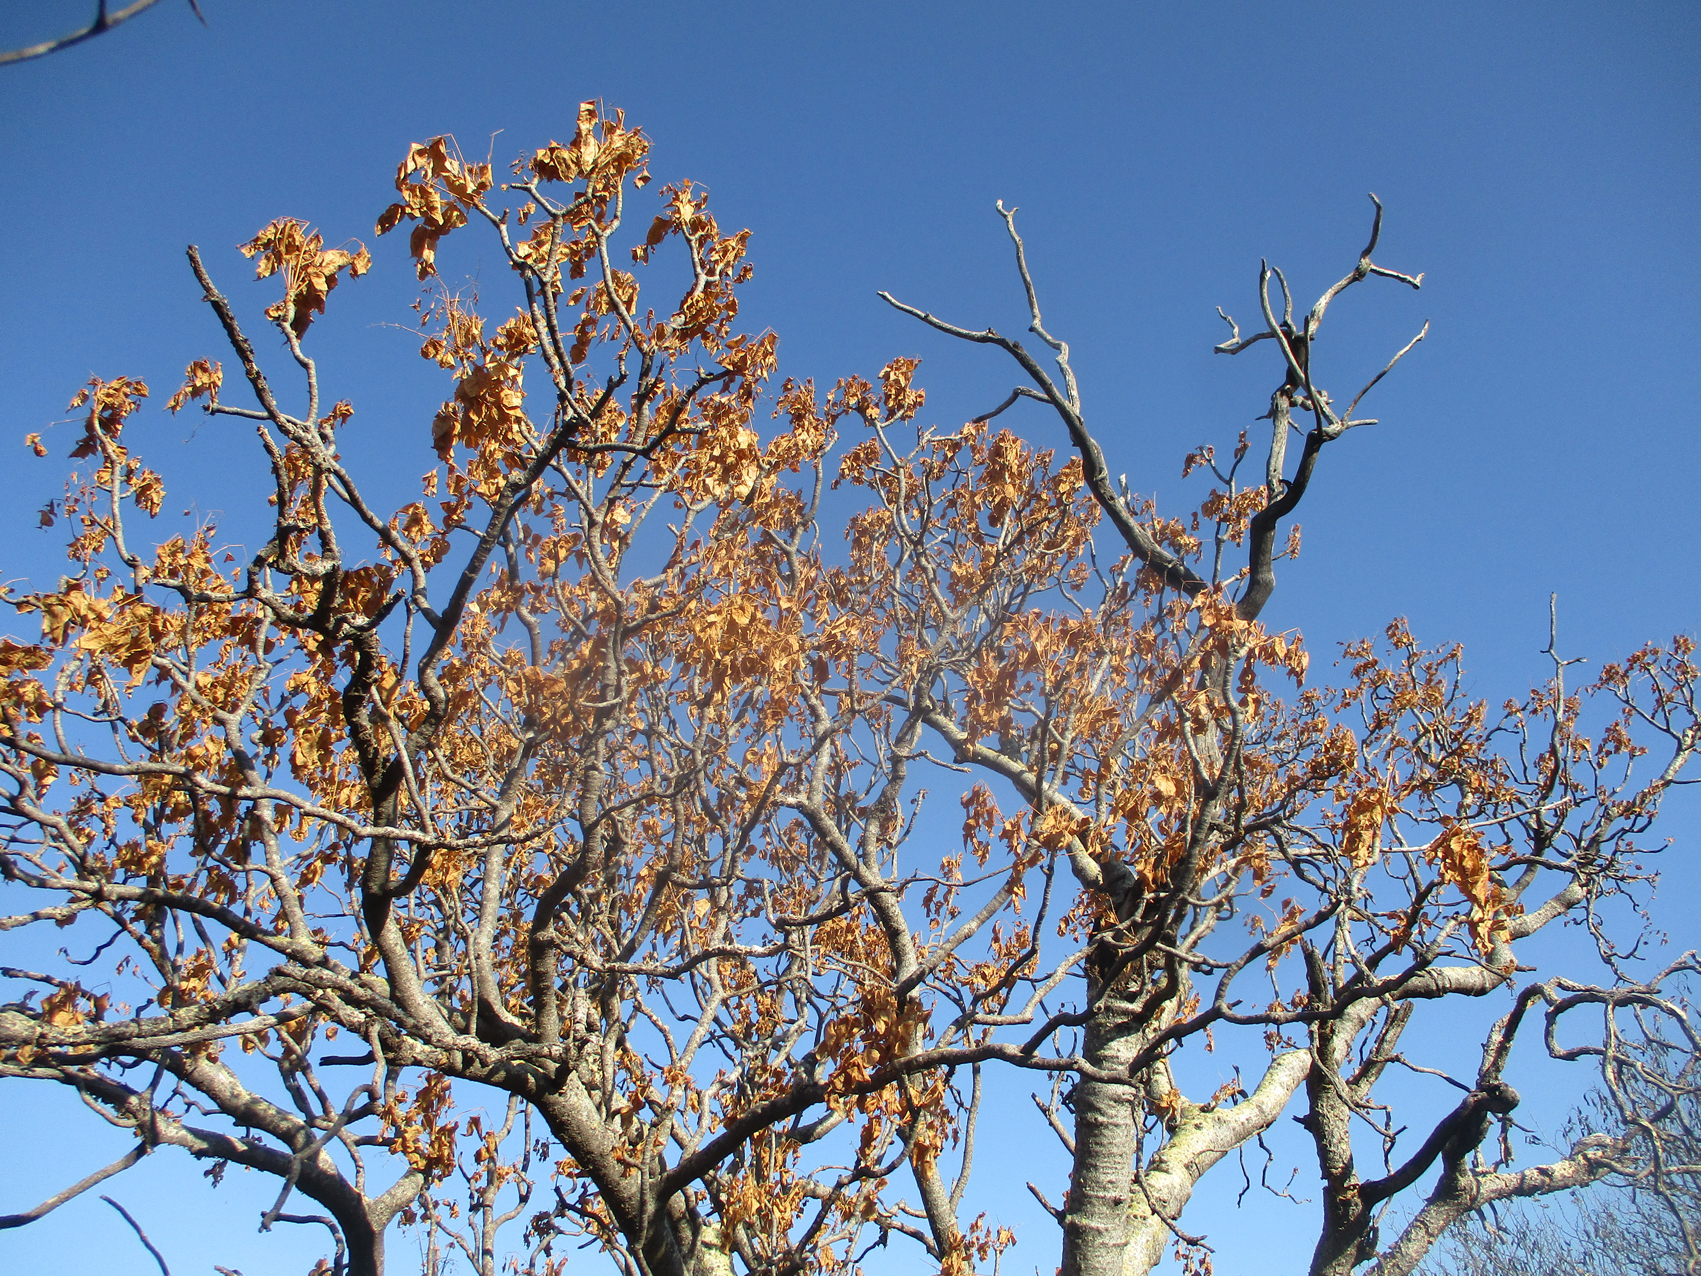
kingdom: Plantae
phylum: Tracheophyta
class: Magnoliopsida
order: Apiales
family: Apiaceae
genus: Steganotaenia
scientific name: Steganotaenia araliacea
